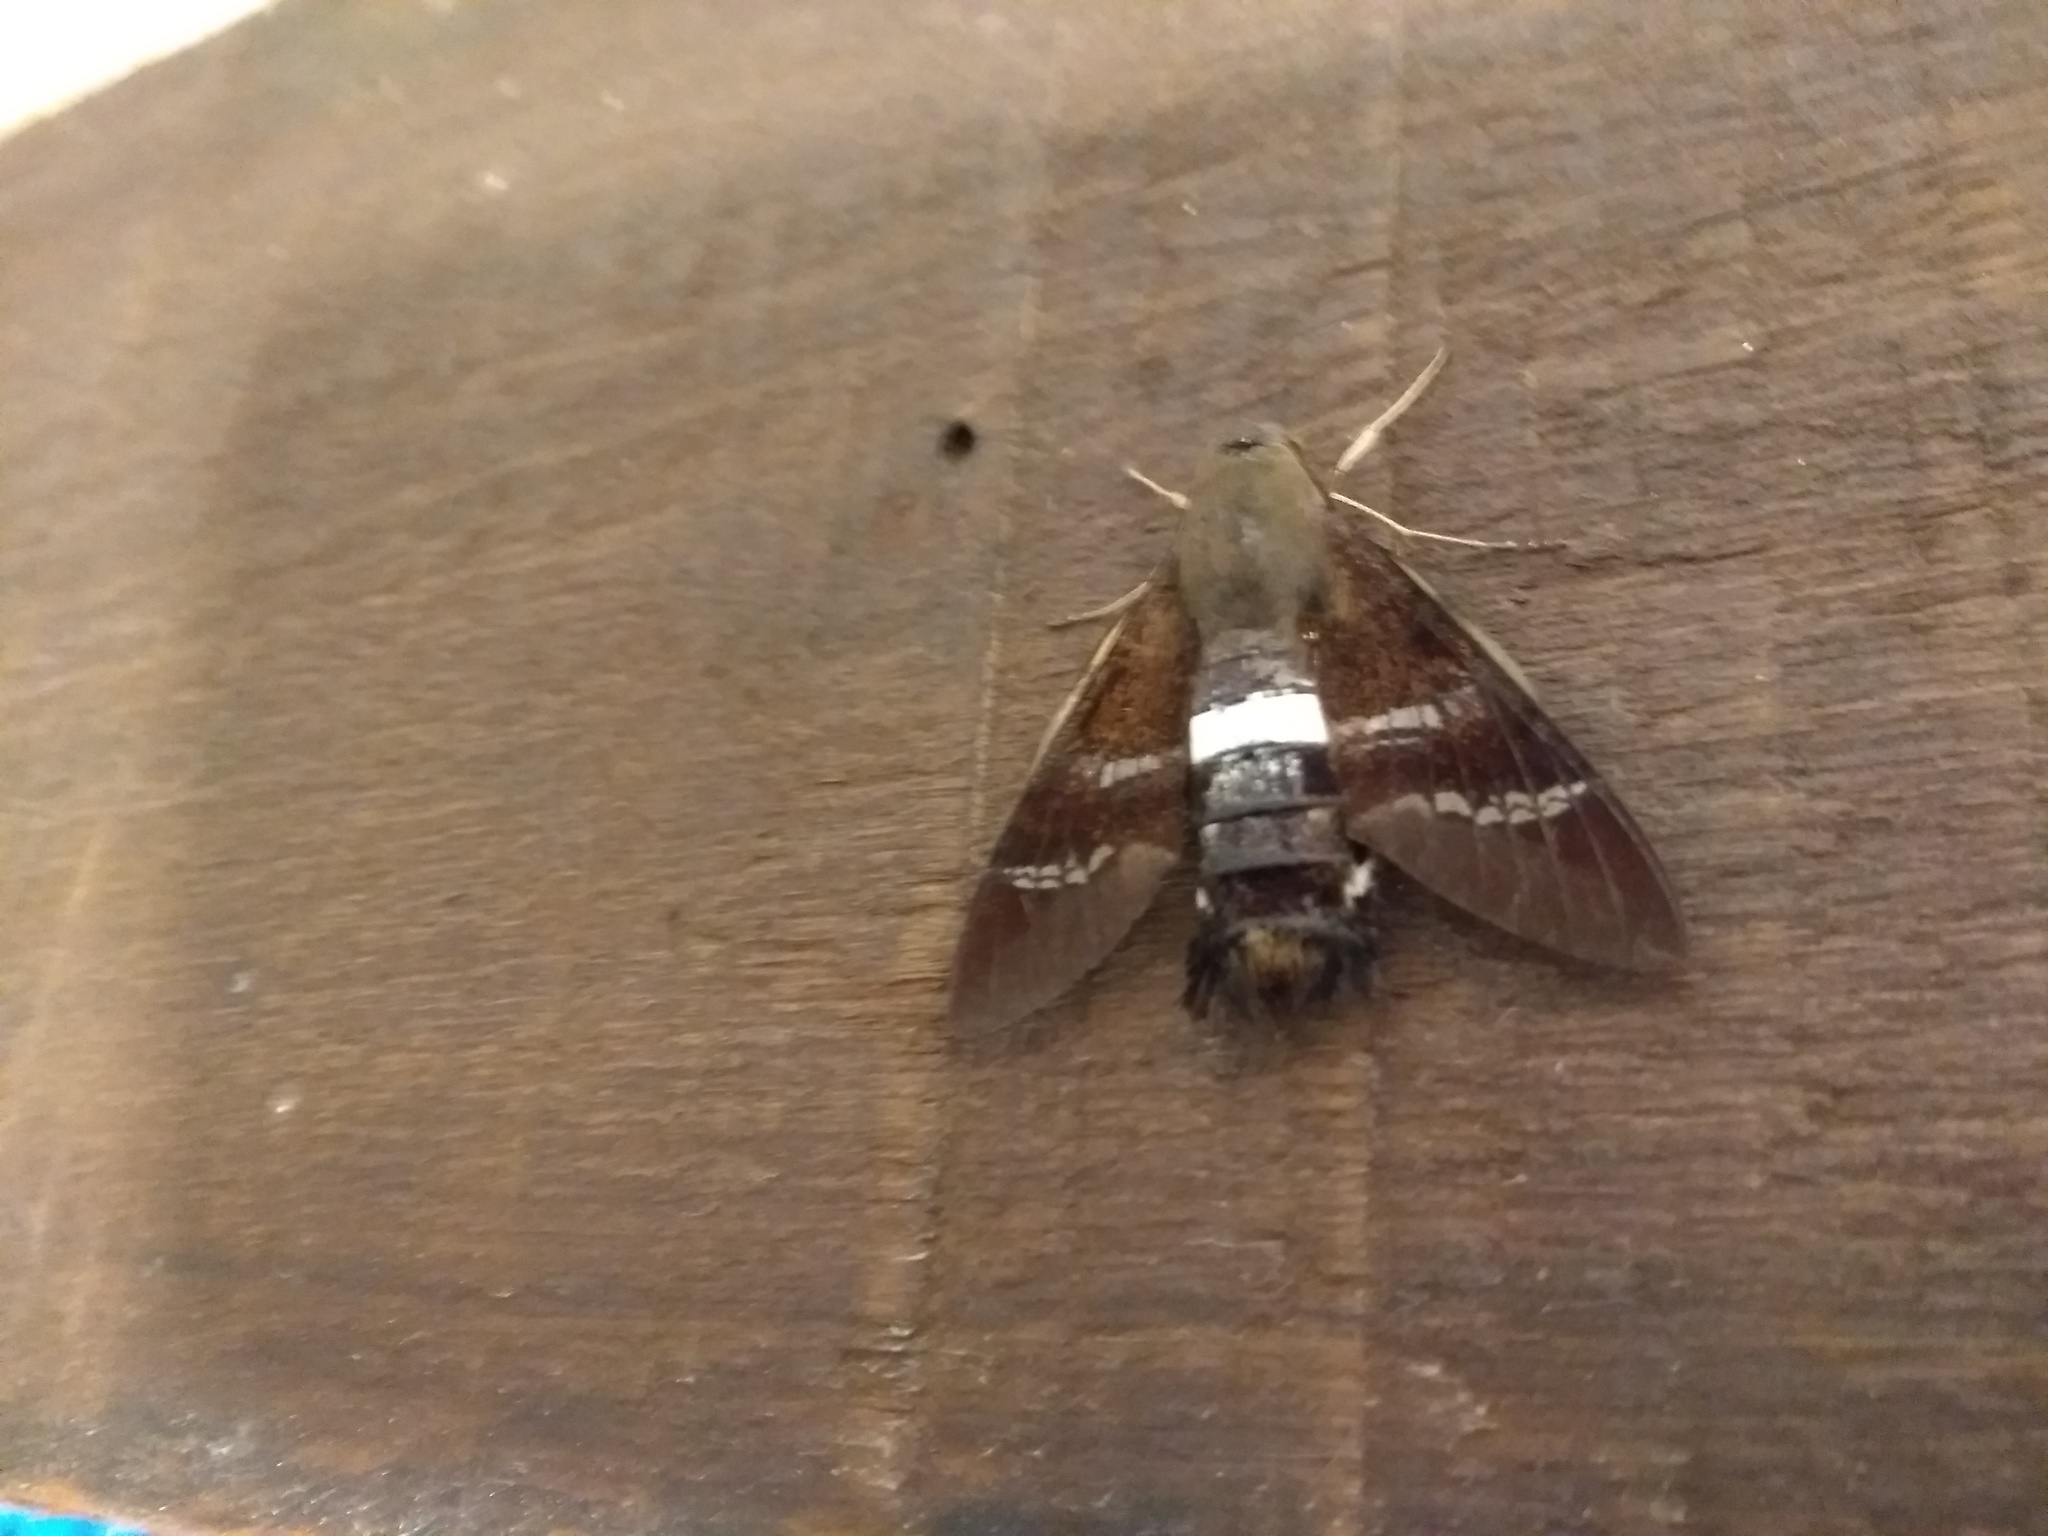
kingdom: Animalia
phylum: Arthropoda
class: Insecta
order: Lepidoptera
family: Sphingidae
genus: Aellopos
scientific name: Aellopos fadus
